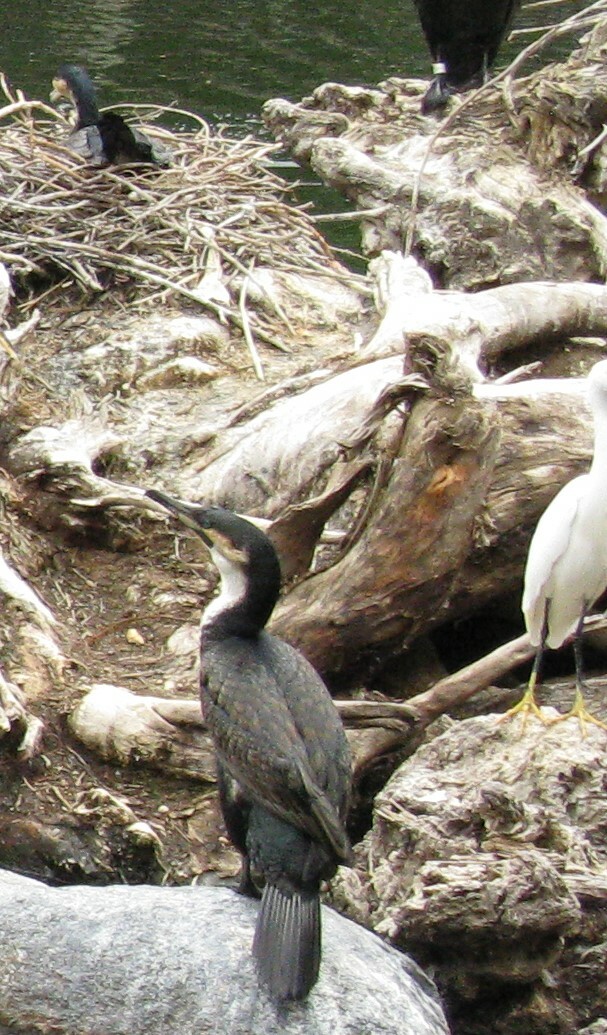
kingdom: Animalia
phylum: Chordata
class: Aves
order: Pelecaniformes
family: Ardeidae
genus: Egretta
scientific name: Egretta thula
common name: Snowy egret
